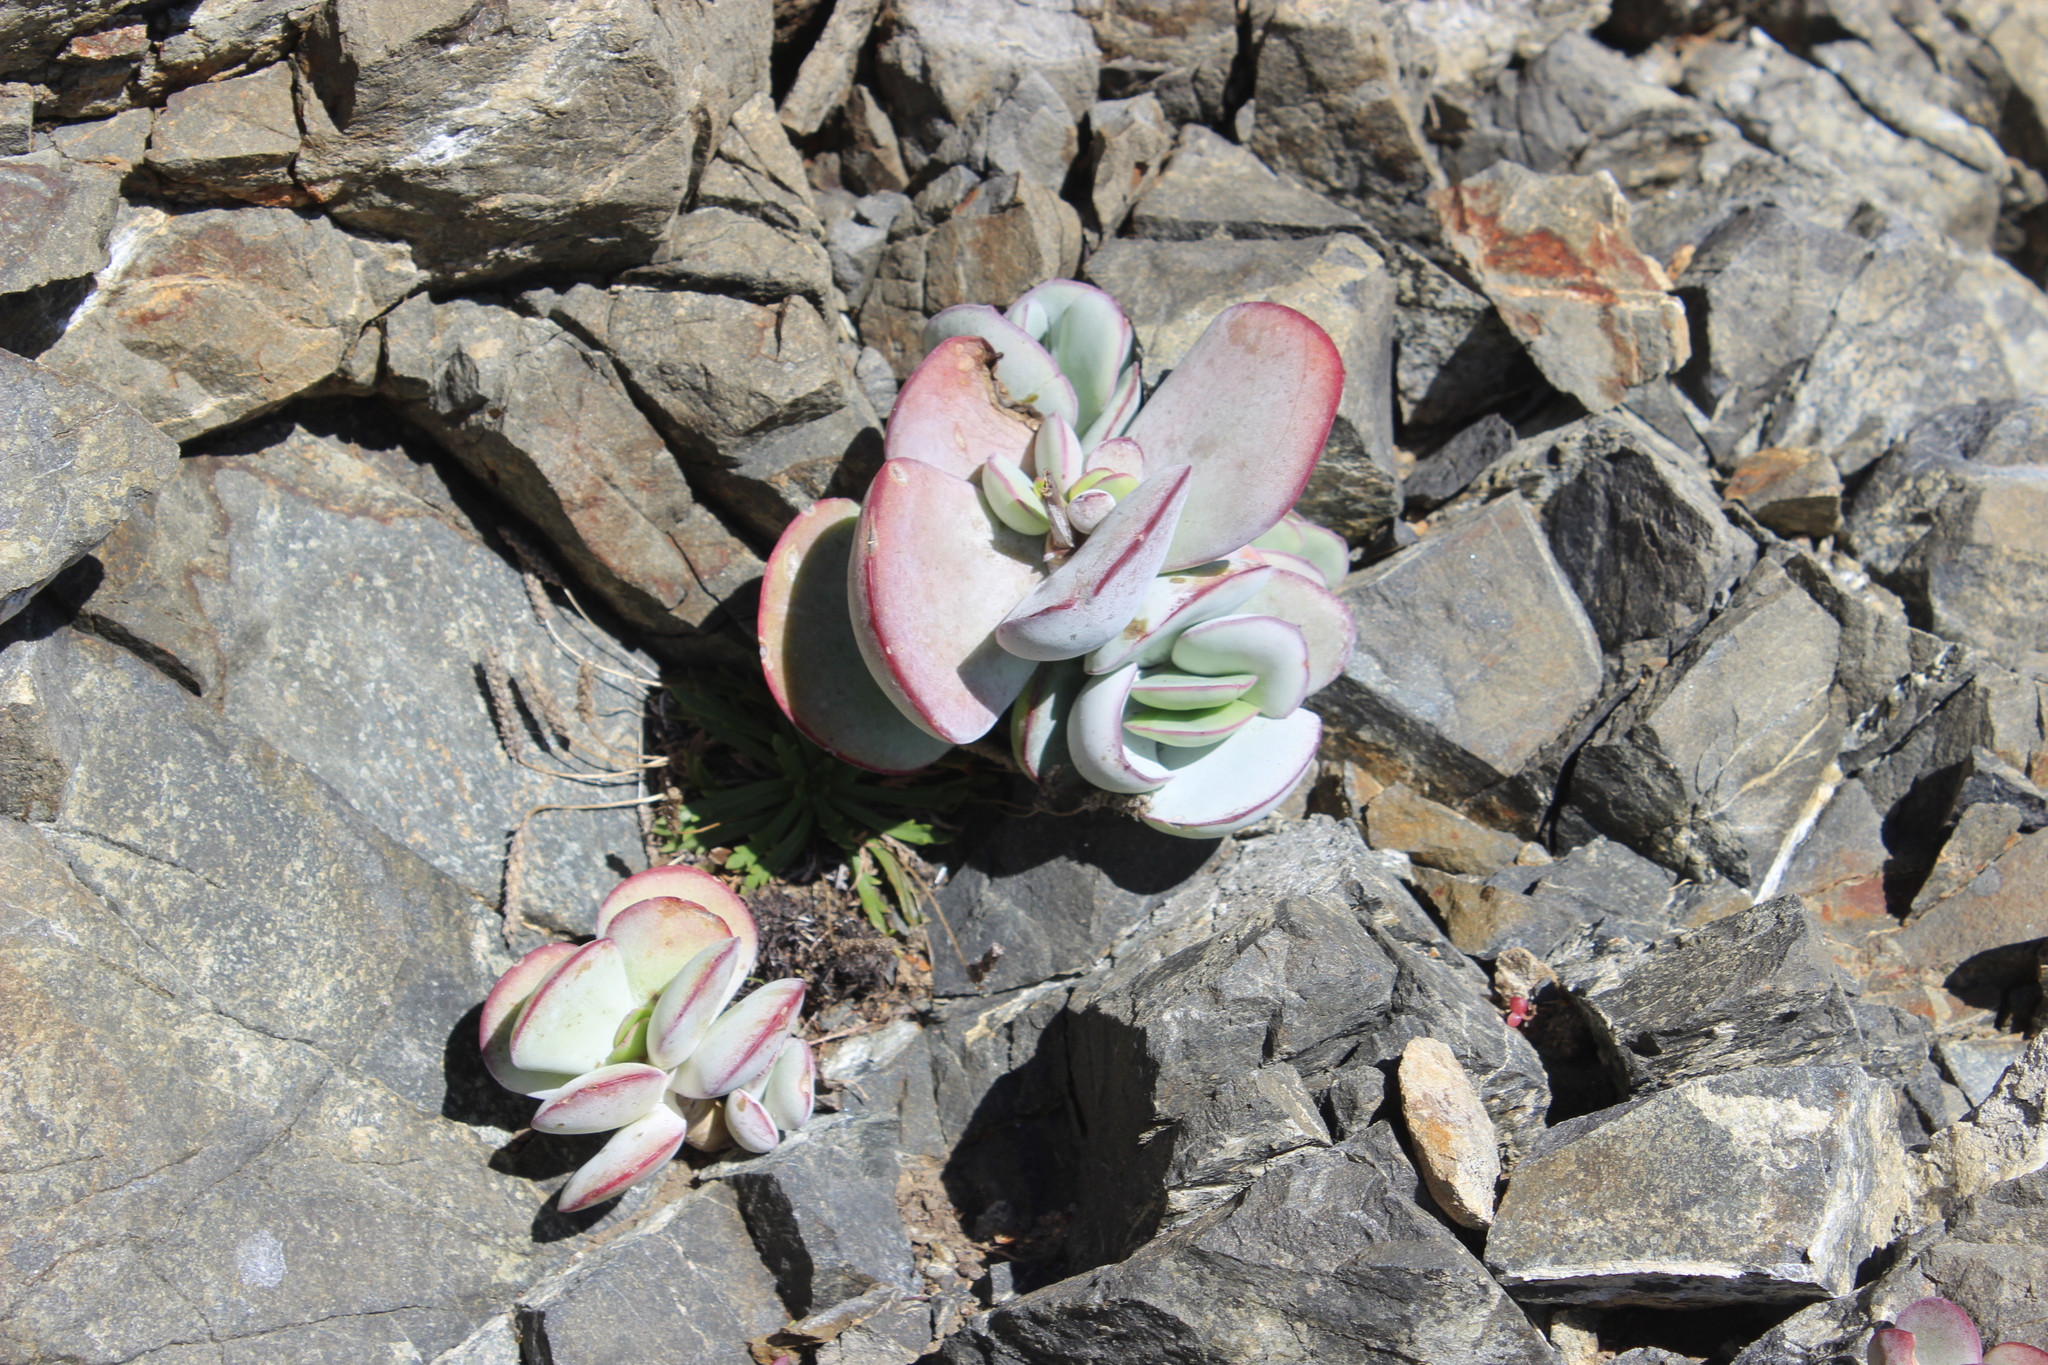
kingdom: Plantae
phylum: Tracheophyta
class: Magnoliopsida
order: Saxifragales
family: Crassulaceae
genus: Cotyledon
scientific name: Cotyledon orbiculata
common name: Pig's ear
